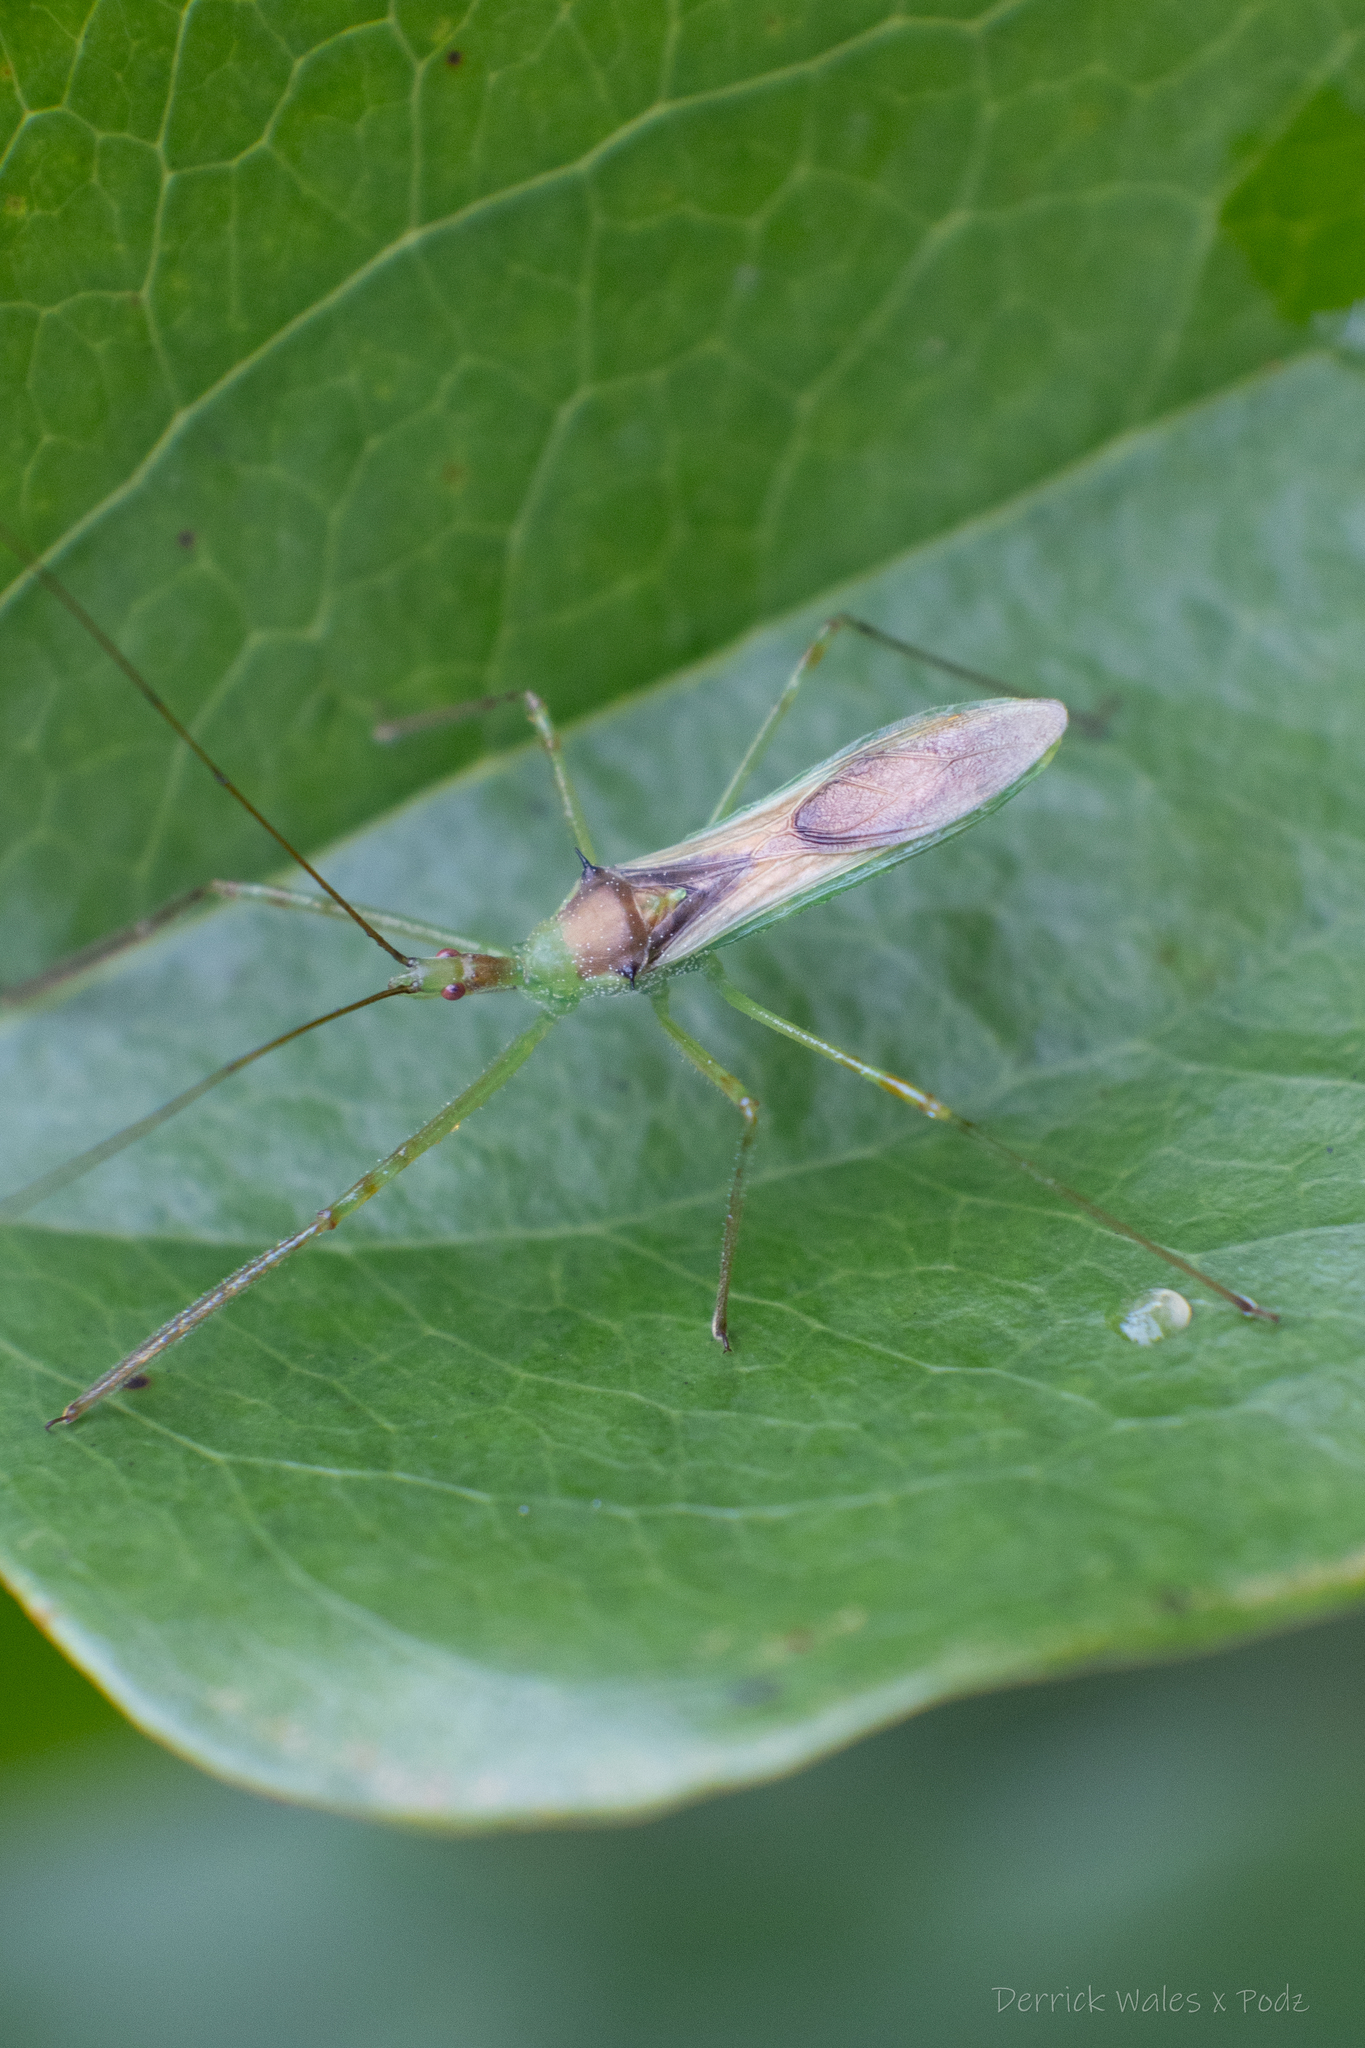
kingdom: Animalia
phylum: Arthropoda
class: Insecta
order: Hemiptera
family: Reduviidae
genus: Zelus
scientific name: Zelus luridus
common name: Pale green assassin bug
